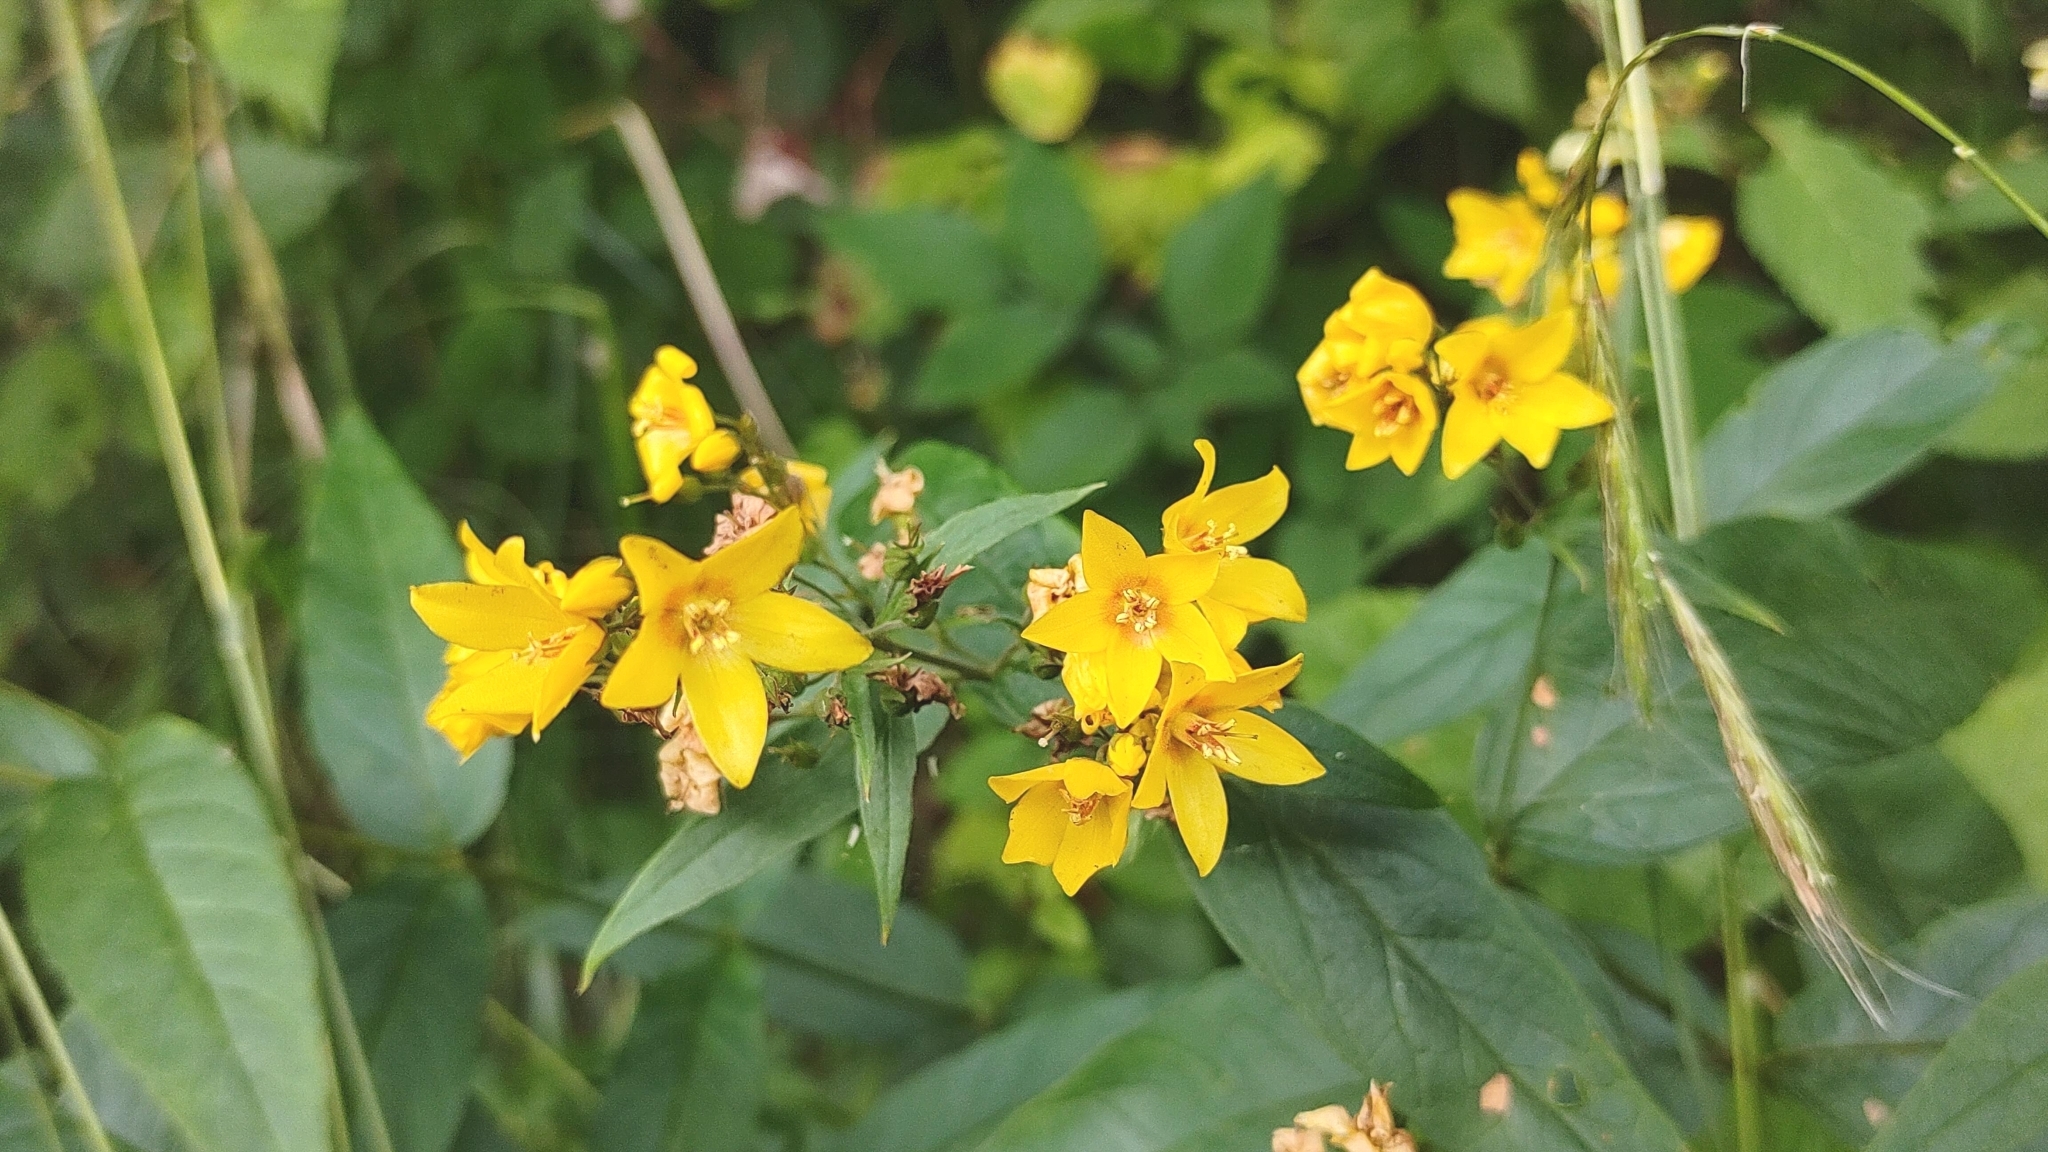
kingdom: Plantae
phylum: Tracheophyta
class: Magnoliopsida
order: Ericales
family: Primulaceae
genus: Lysimachia
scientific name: Lysimachia vulgaris
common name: Yellow loosestrife
